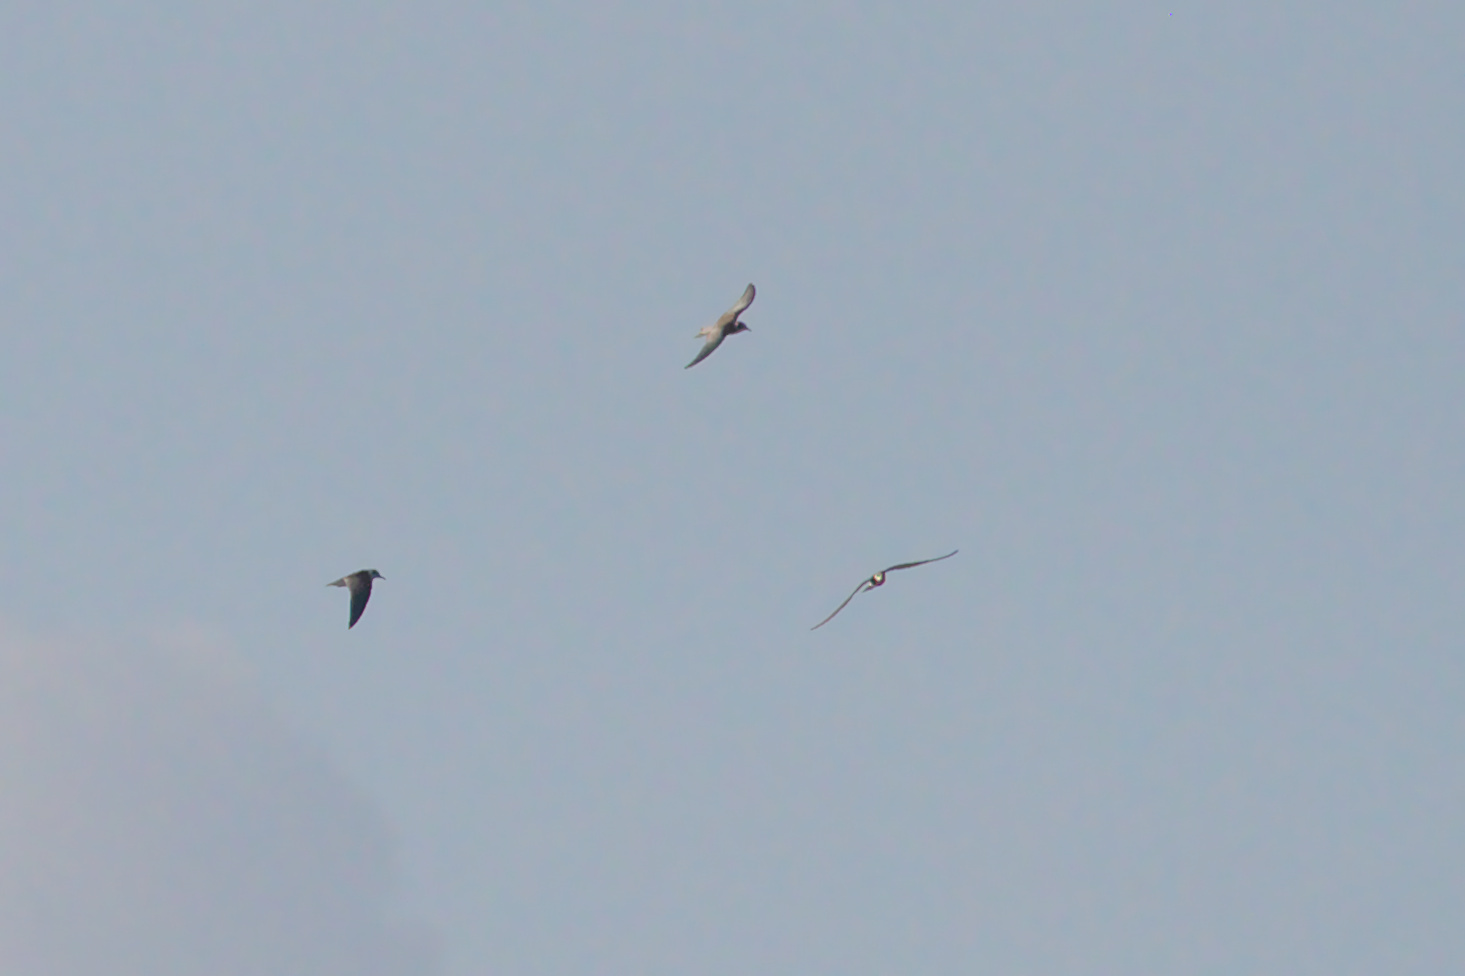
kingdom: Animalia
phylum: Chordata
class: Aves
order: Charadriiformes
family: Laridae
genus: Chlidonias
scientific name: Chlidonias niger
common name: Black tern
